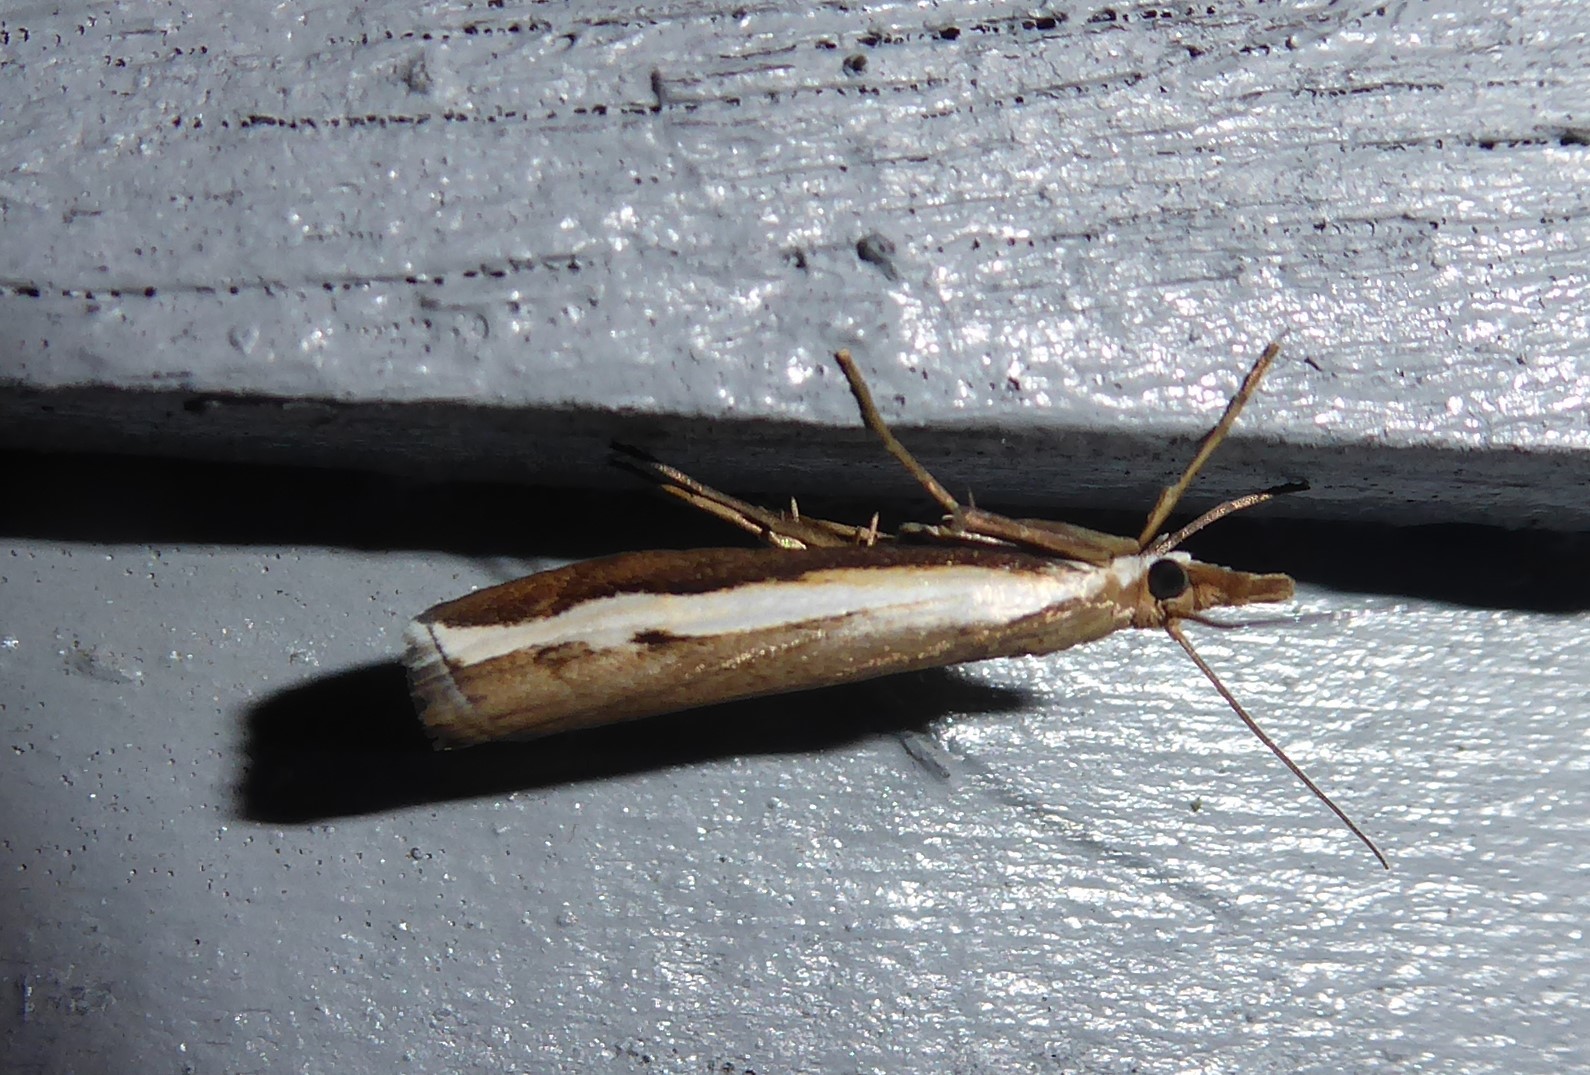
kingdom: Animalia
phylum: Arthropoda
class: Insecta
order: Lepidoptera
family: Crambidae
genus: Orocrambus
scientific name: Orocrambus flexuosellus
